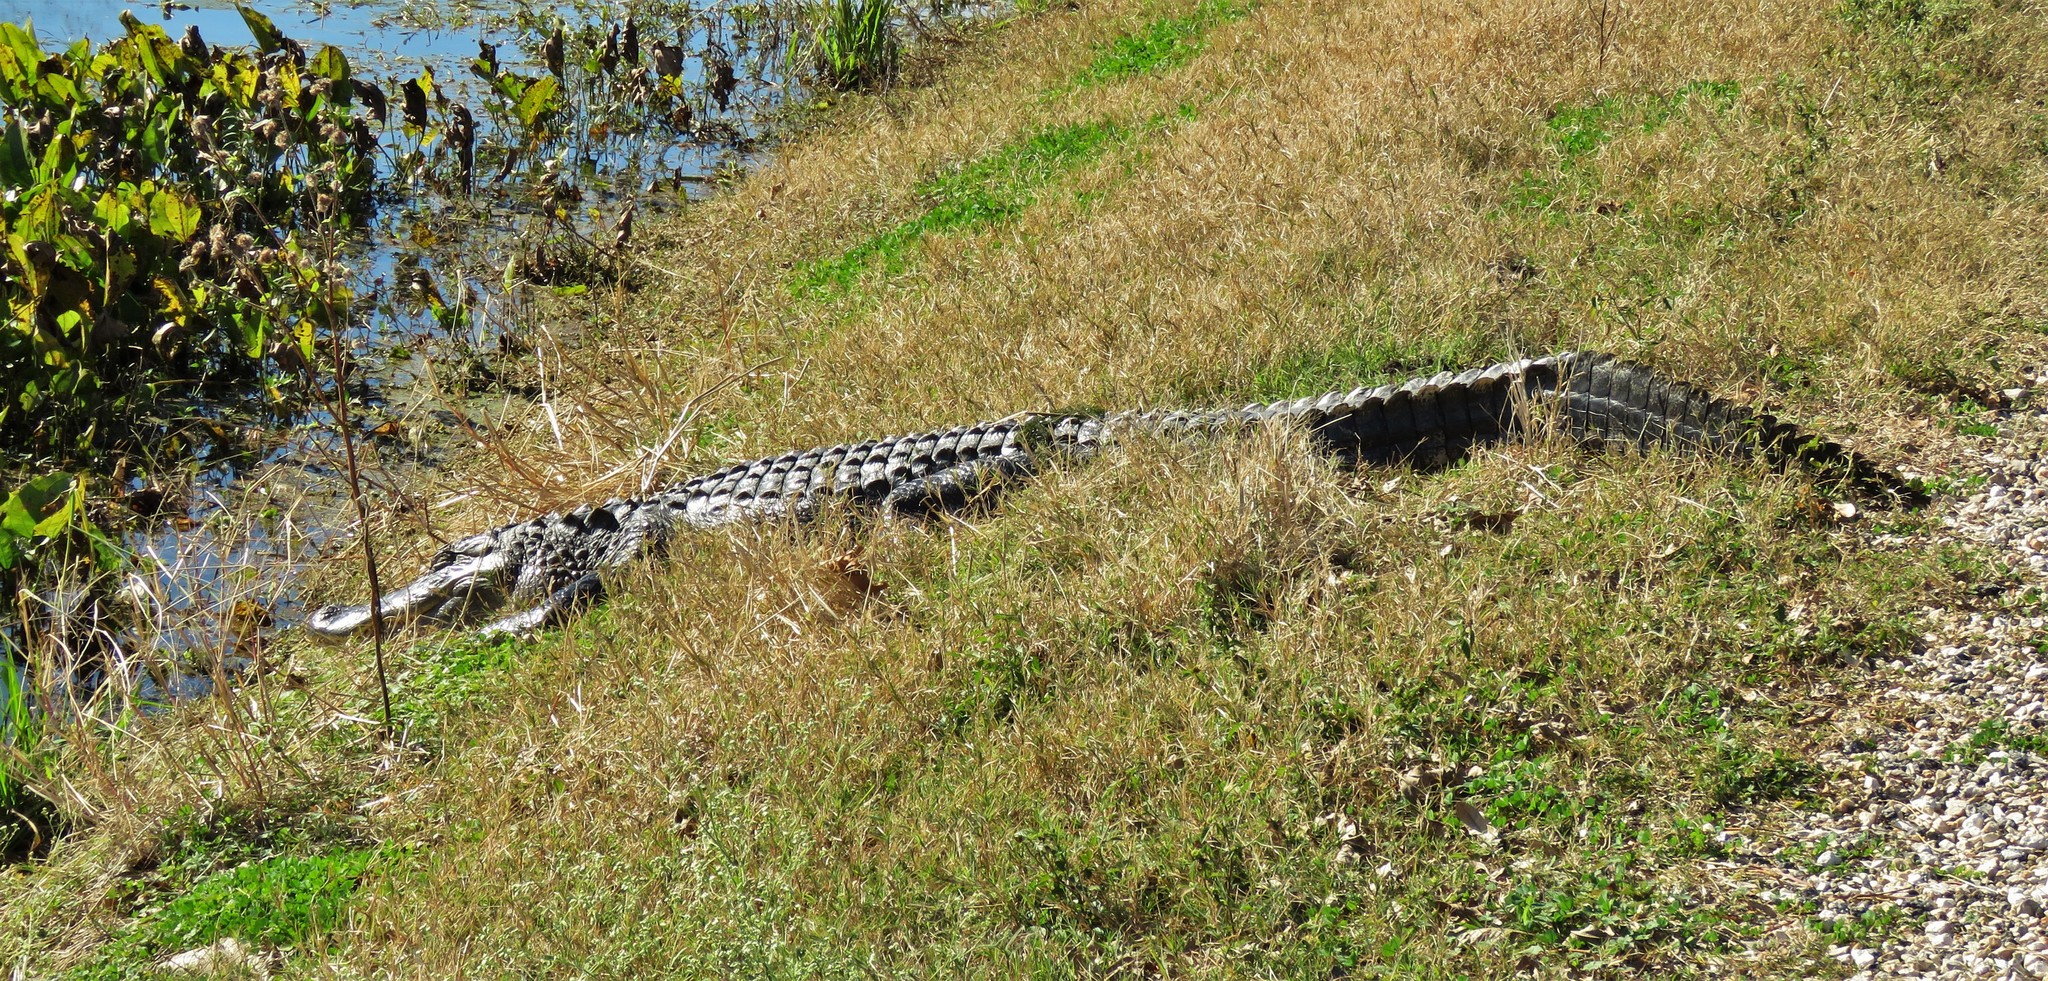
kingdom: Animalia
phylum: Chordata
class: Crocodylia
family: Alligatoridae
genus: Alligator
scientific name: Alligator mississippiensis
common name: American alligator
